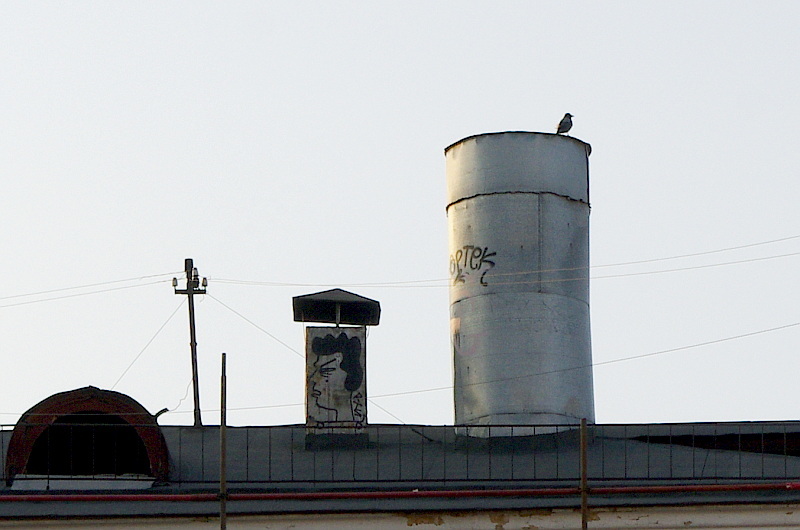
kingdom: Animalia
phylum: Chordata
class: Aves
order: Passeriformes
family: Corvidae
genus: Corvus
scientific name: Corvus cornix
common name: Hooded crow
